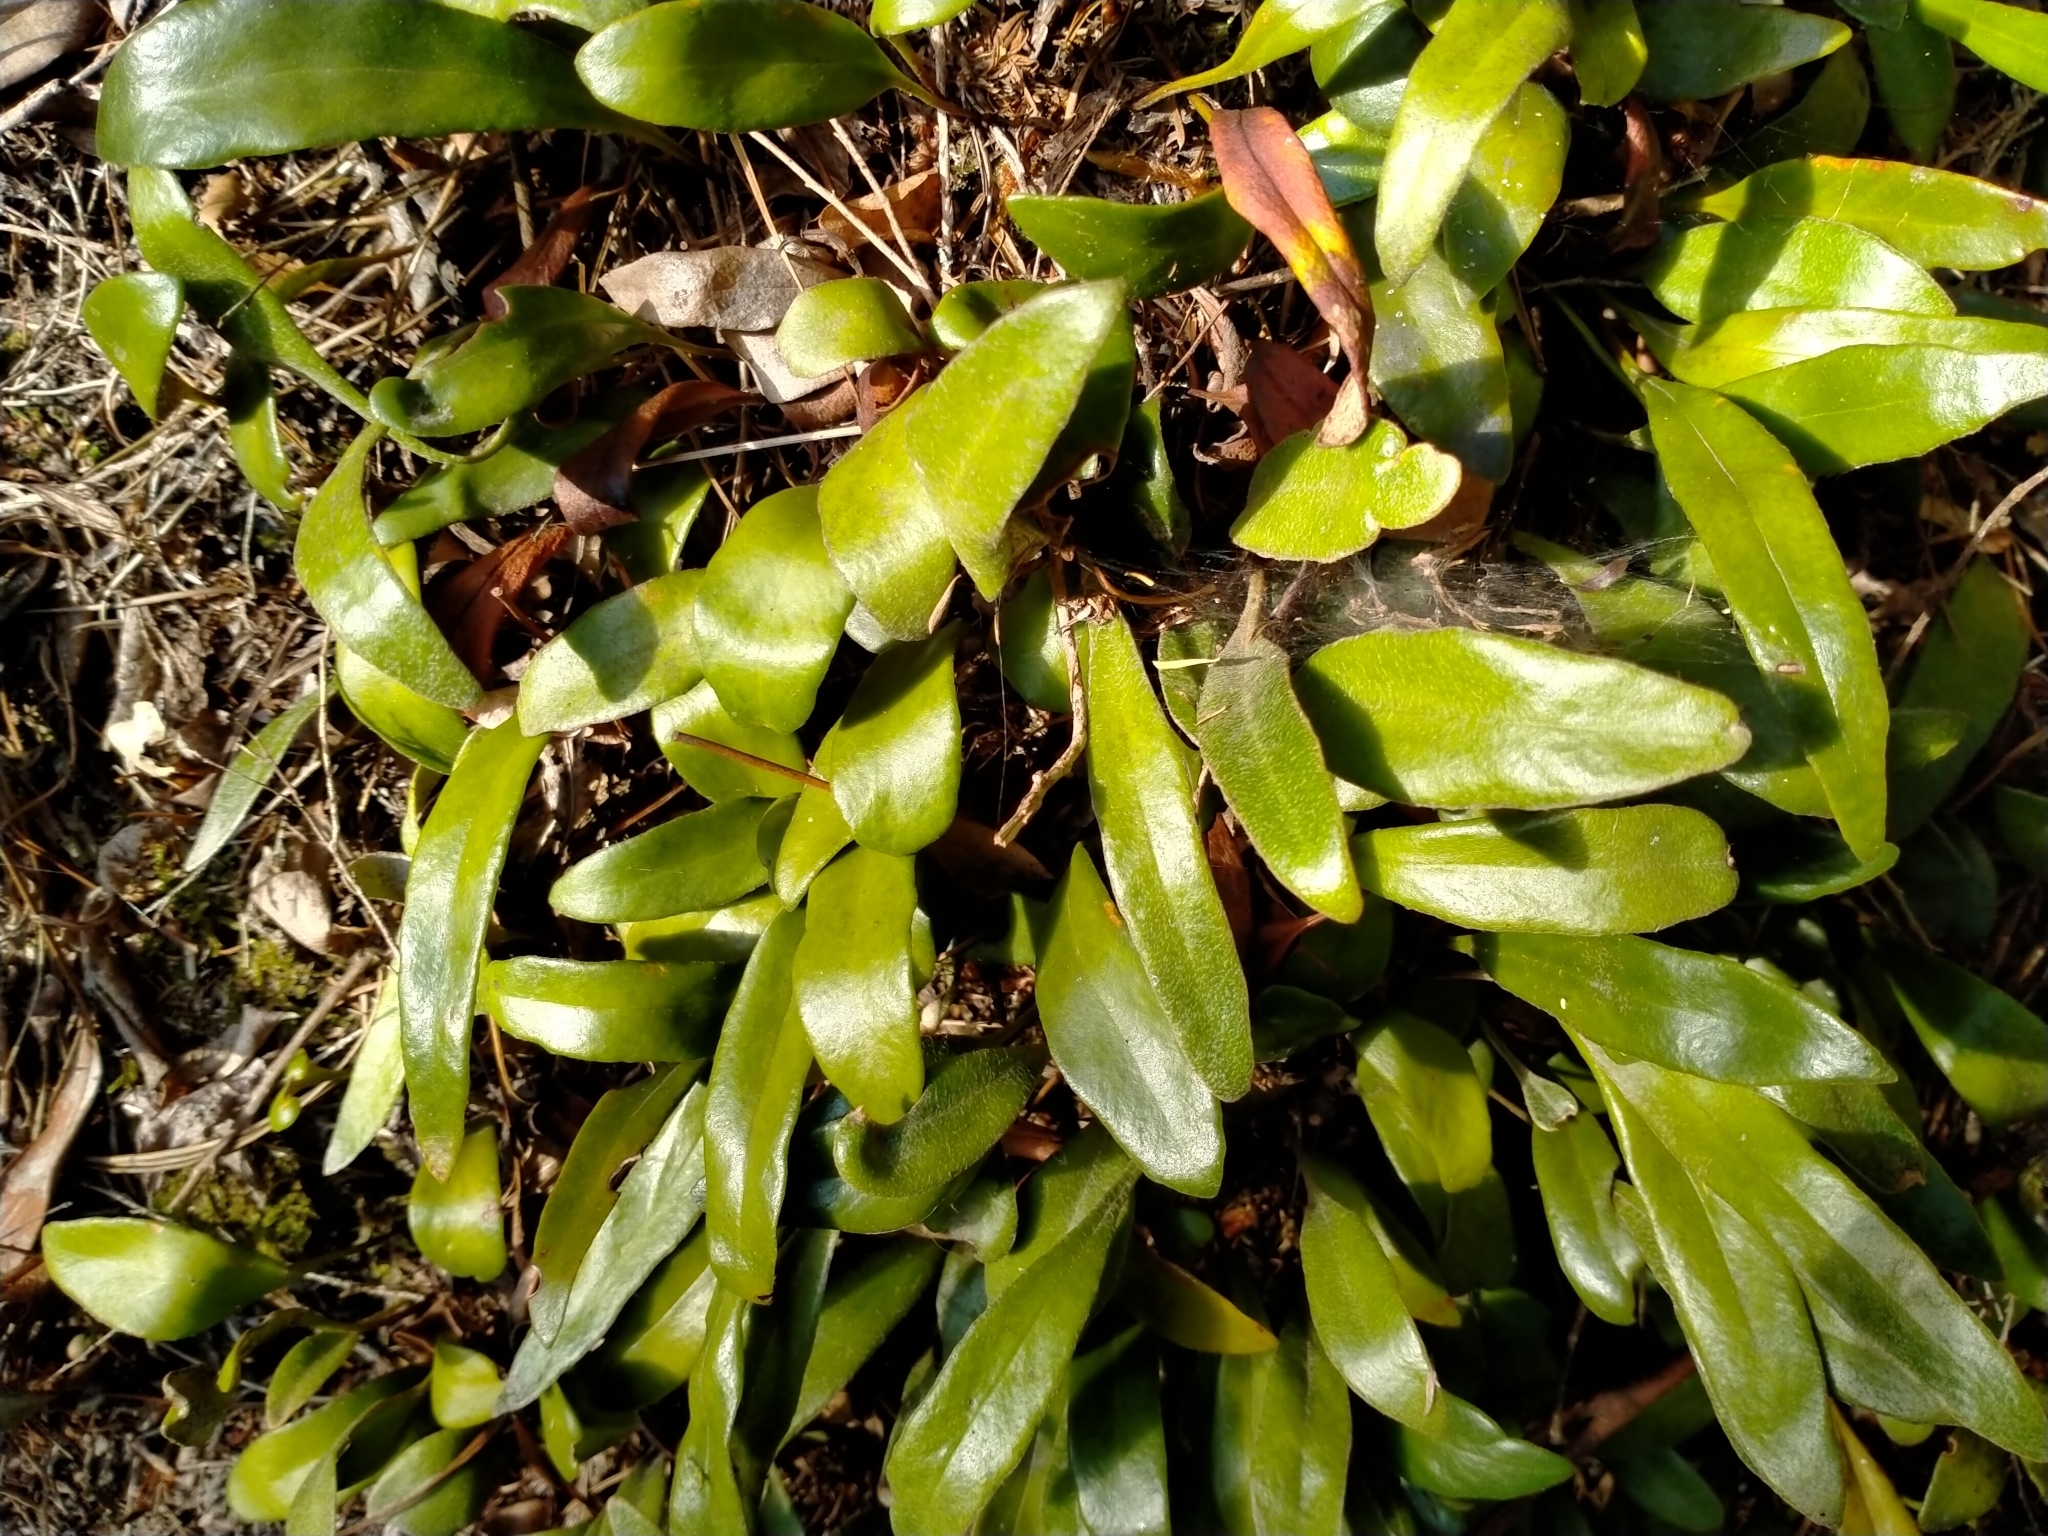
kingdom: Plantae
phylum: Tracheophyta
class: Polypodiopsida
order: Polypodiales
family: Polypodiaceae
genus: Pyrrosia
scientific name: Pyrrosia eleagnifolia
